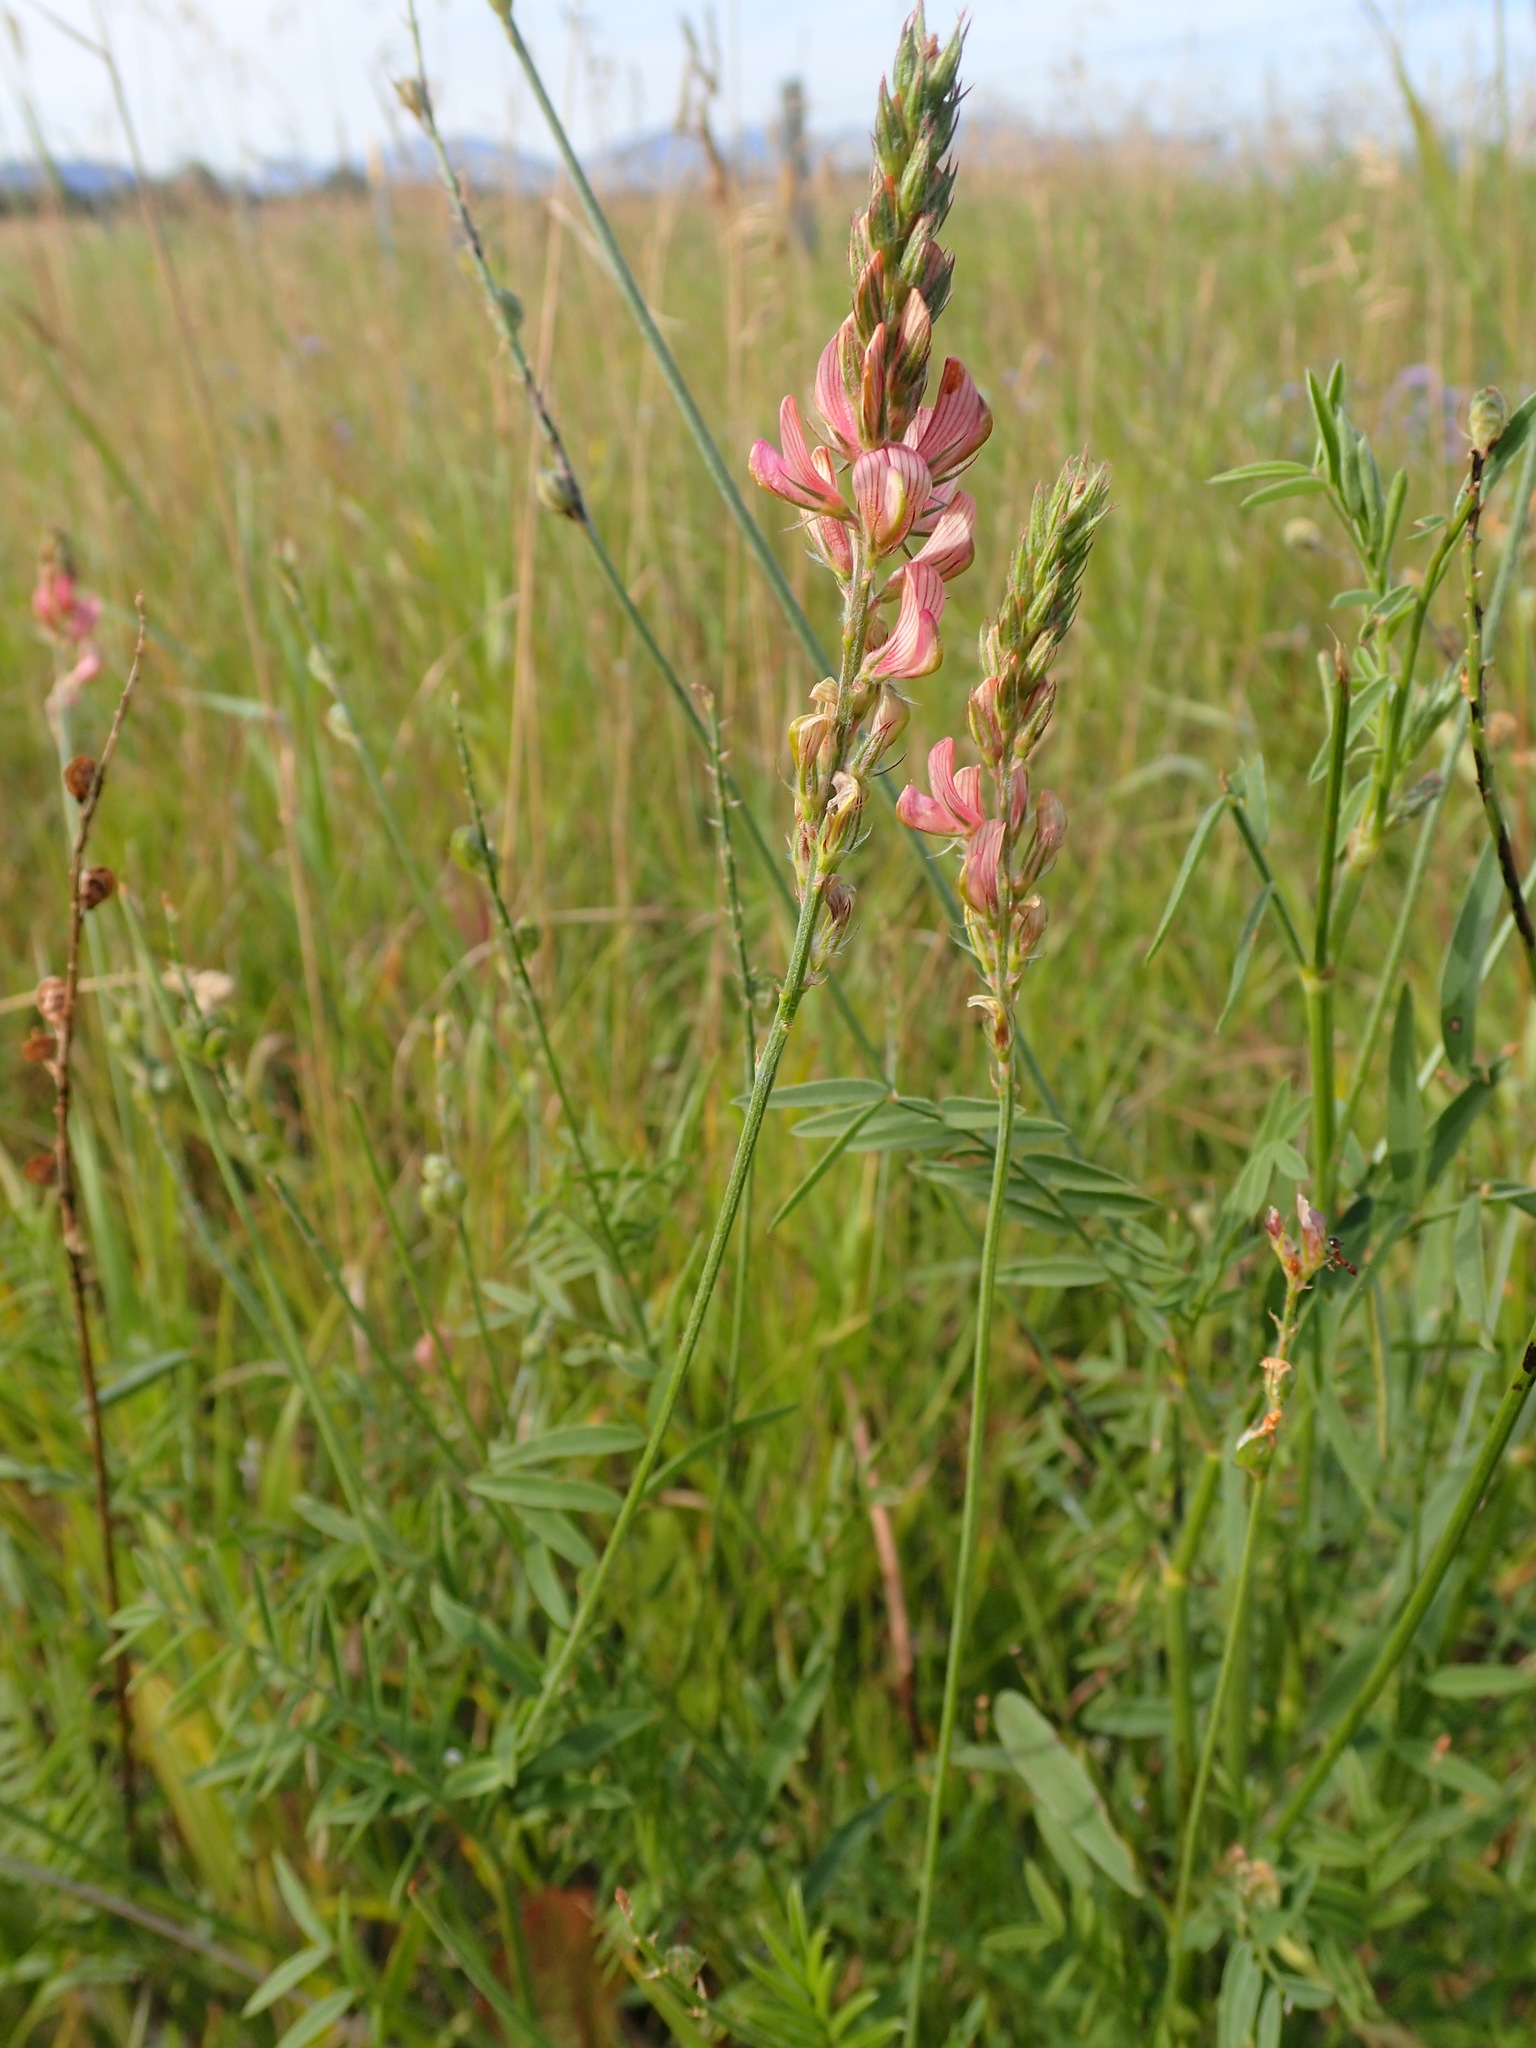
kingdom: Plantae
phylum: Tracheophyta
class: Magnoliopsida
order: Fabales
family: Fabaceae
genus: Onobrychis
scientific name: Onobrychis viciifolia
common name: Sainfoin
